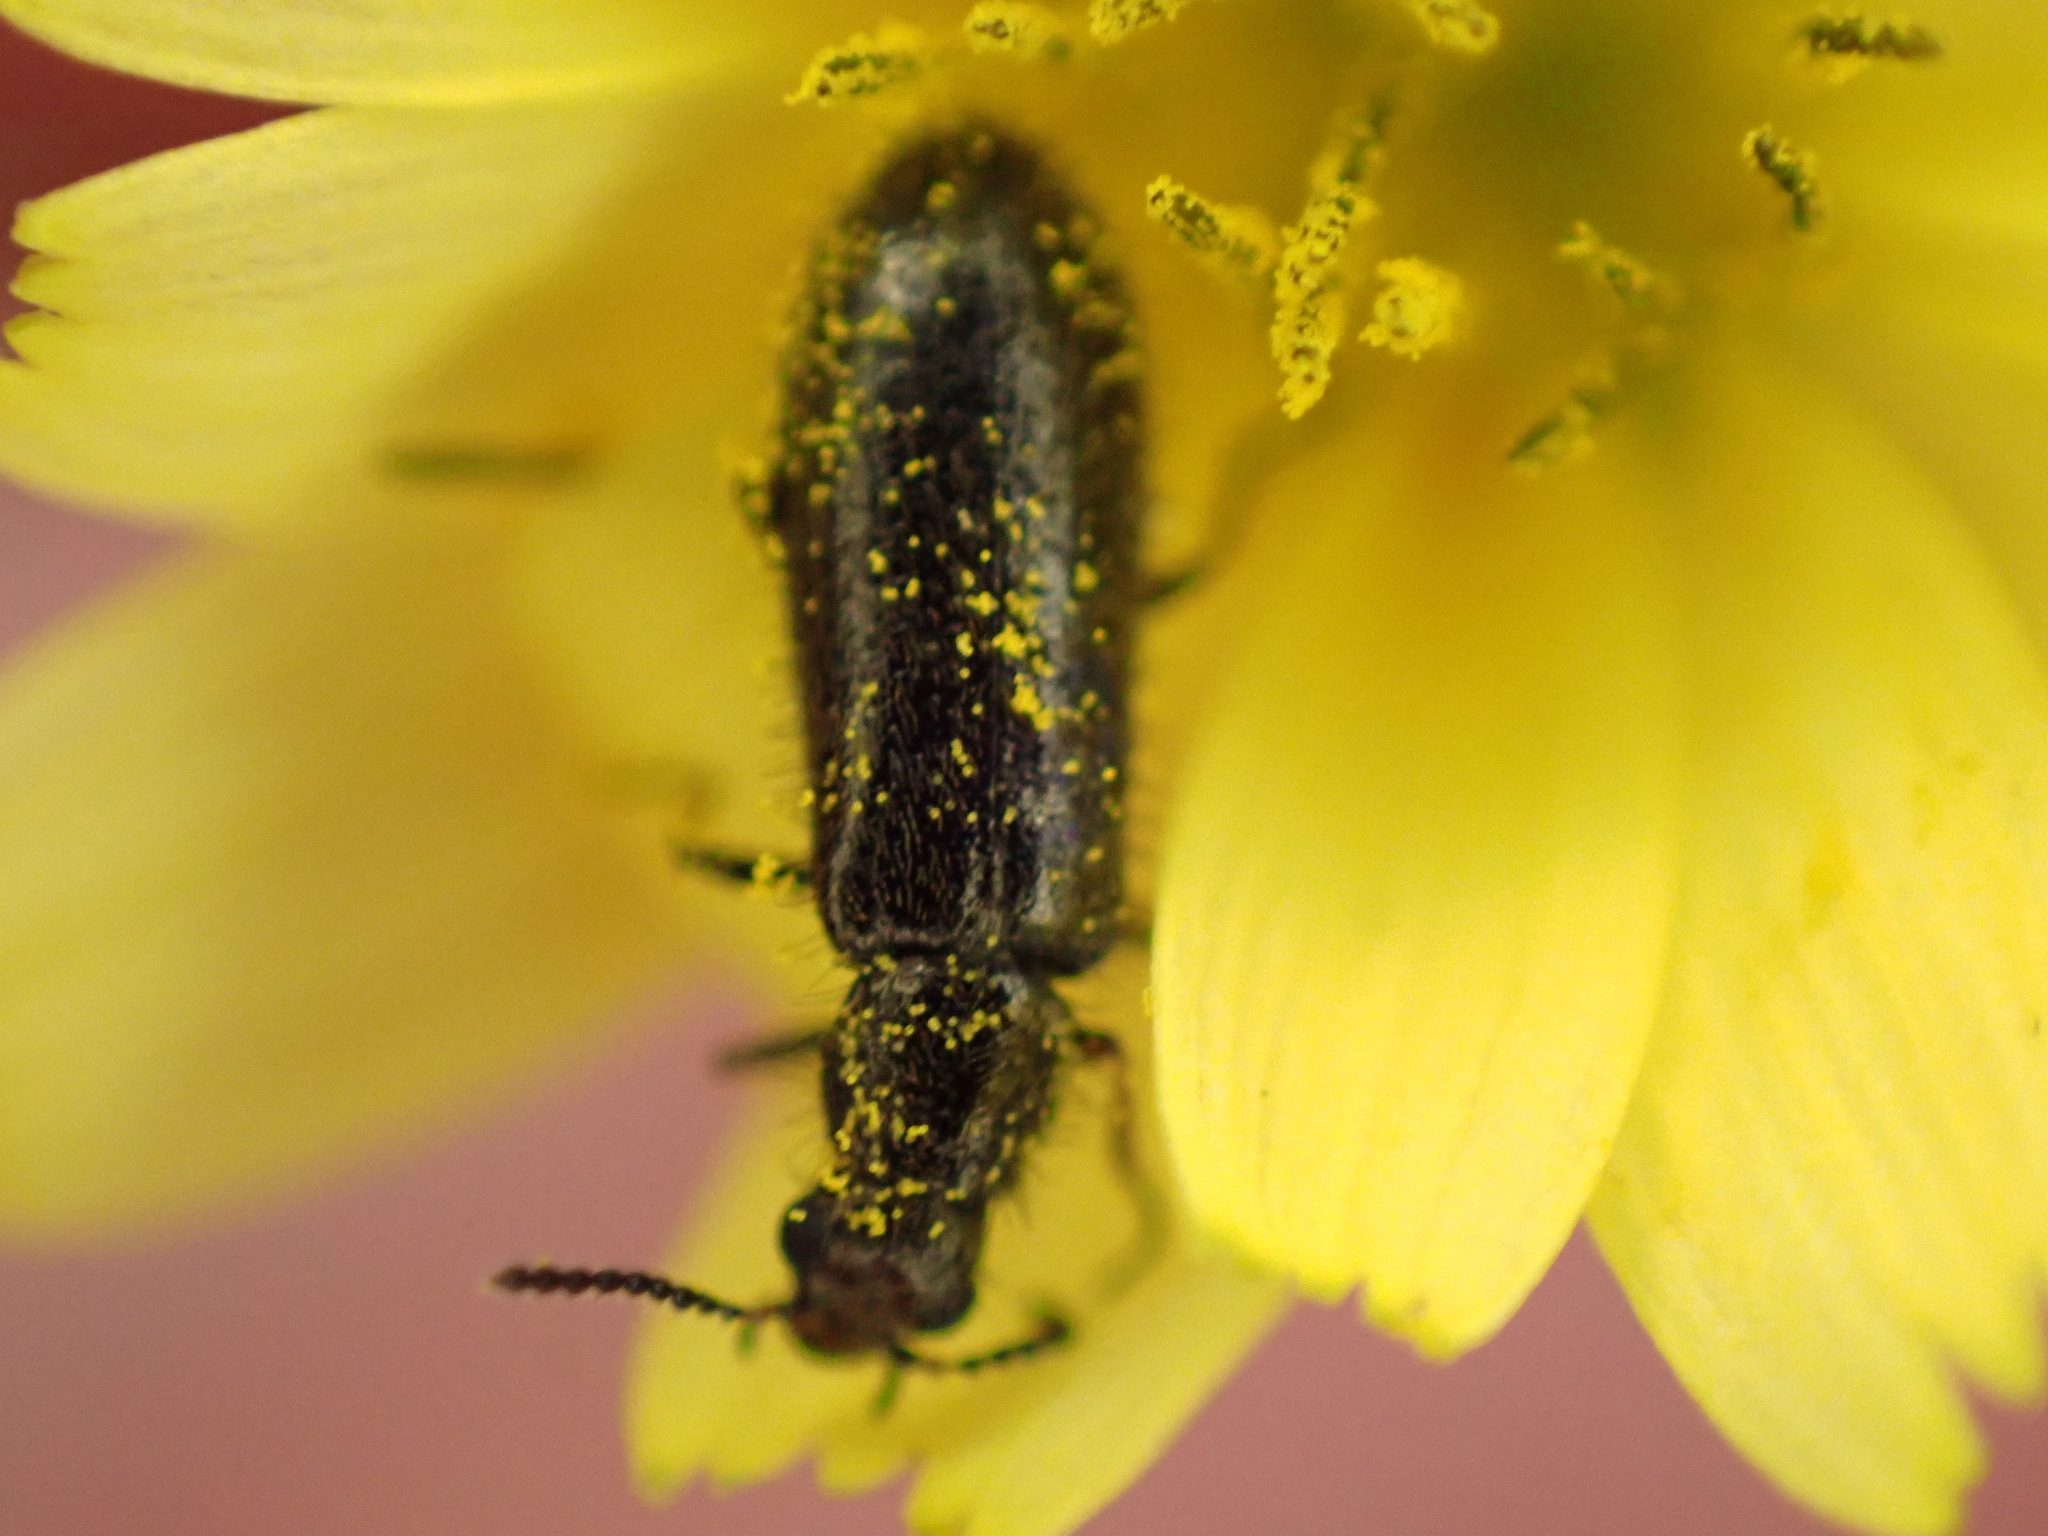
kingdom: Animalia
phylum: Arthropoda
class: Insecta
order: Coleoptera
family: Melyridae
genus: Dasytes
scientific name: Dasytes plumbeus
